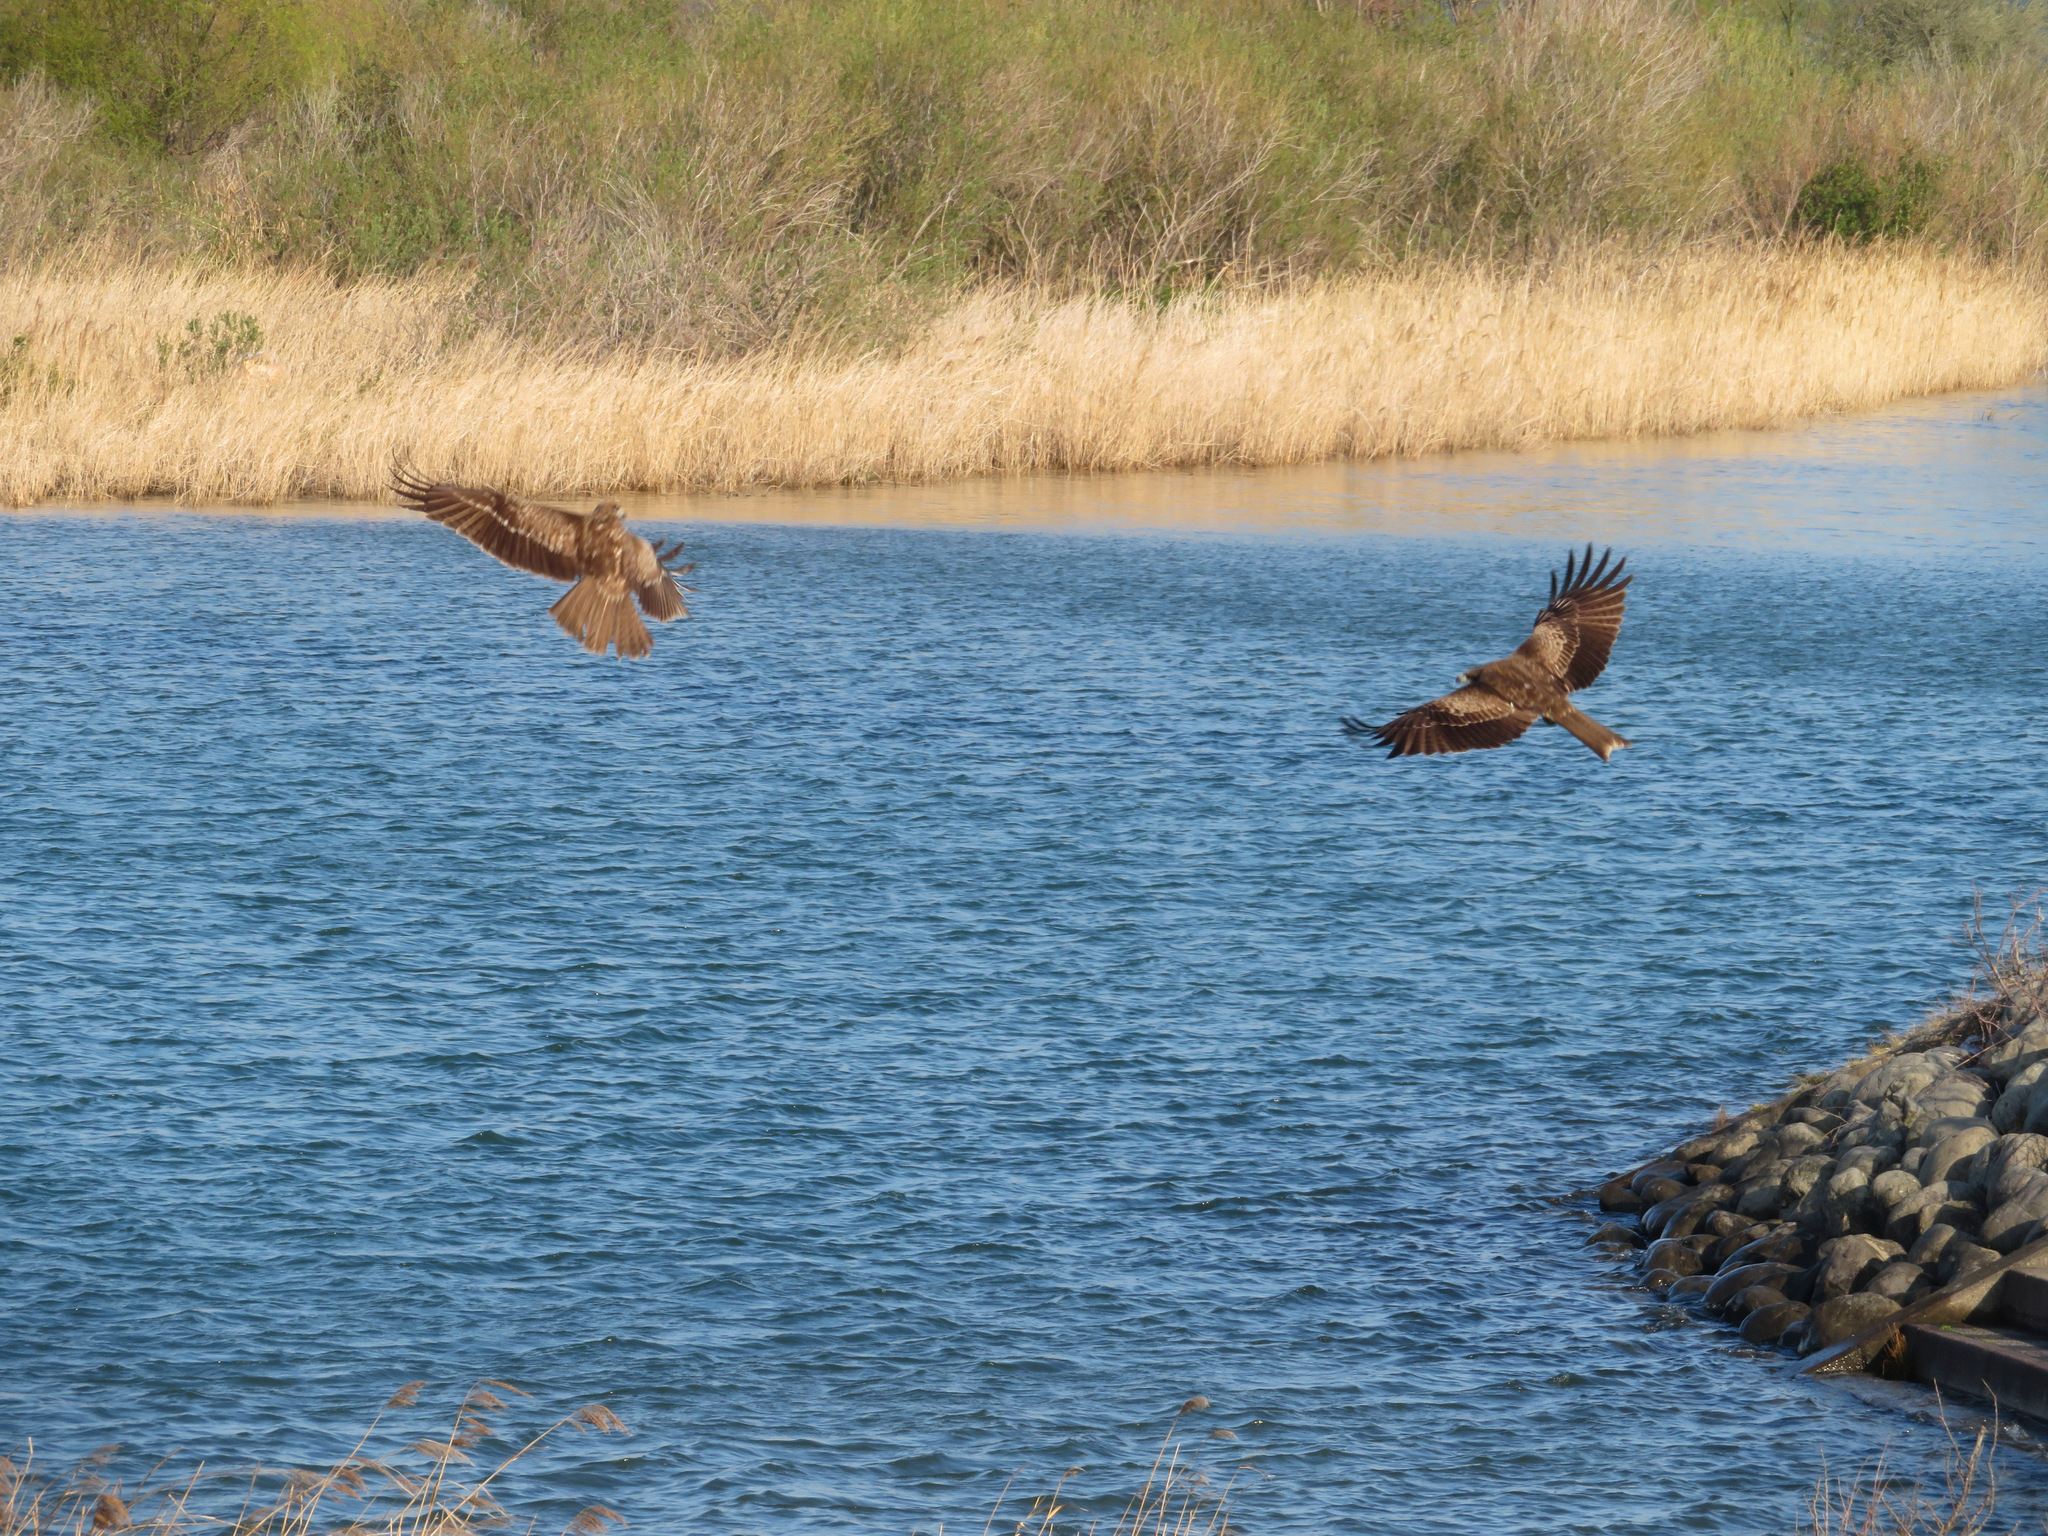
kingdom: Animalia
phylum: Chordata
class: Aves
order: Accipitriformes
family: Accipitridae
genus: Milvus
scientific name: Milvus migrans
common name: Black kite
